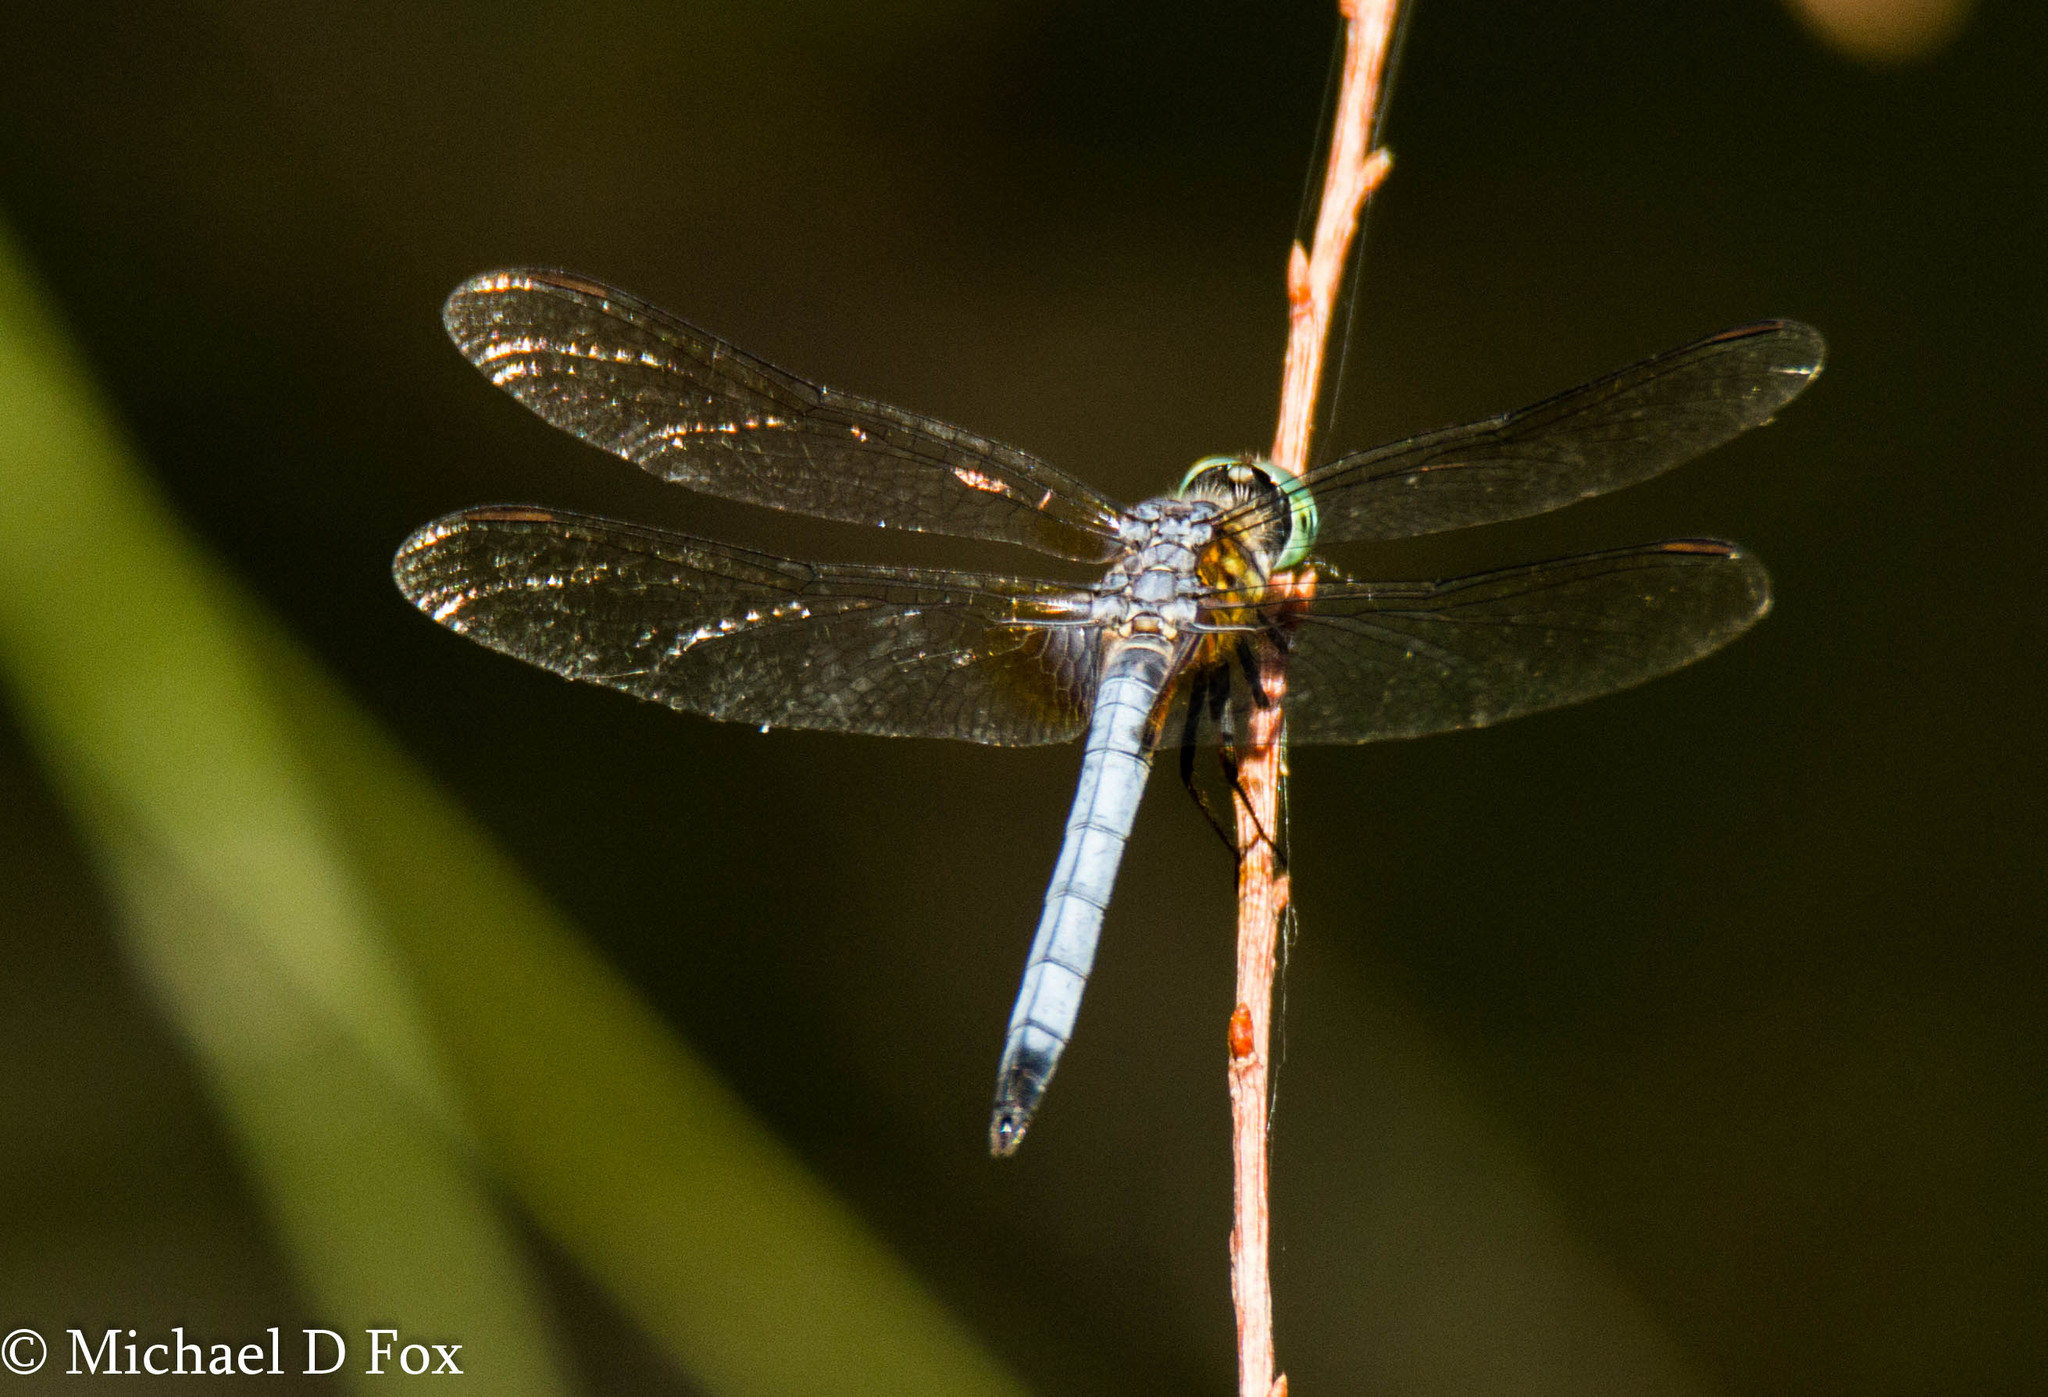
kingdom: Animalia
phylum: Arthropoda
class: Insecta
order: Odonata
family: Libellulidae
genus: Pachydiplax
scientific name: Pachydiplax longipennis
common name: Blue dasher
